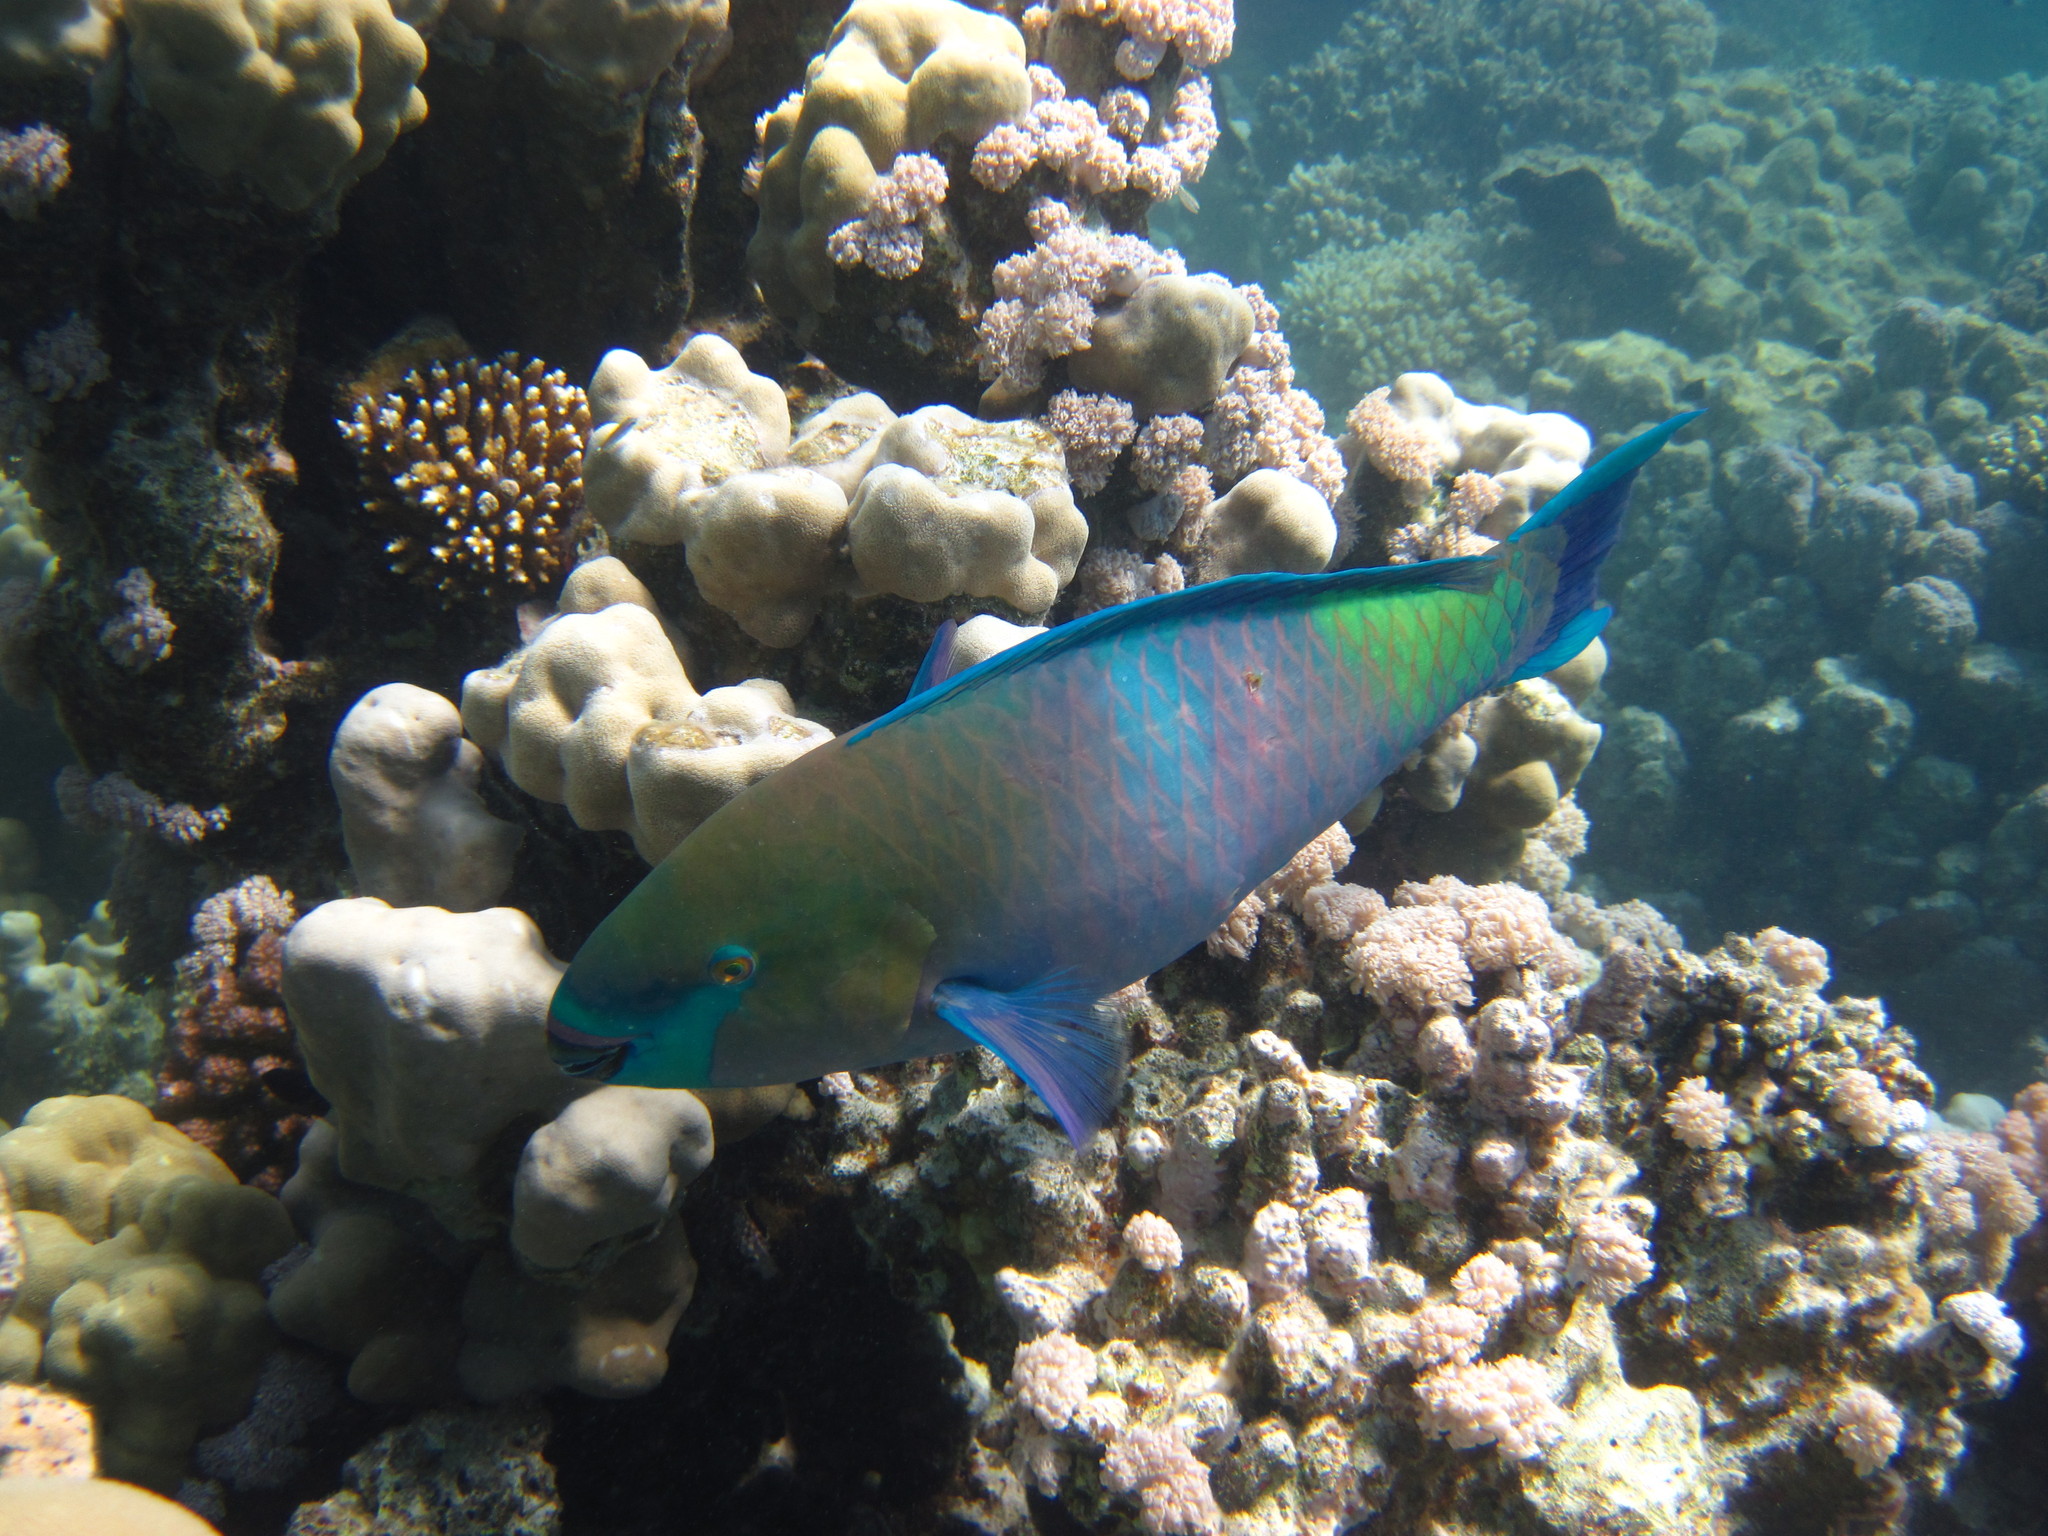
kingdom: Animalia
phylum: Chordata
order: Perciformes
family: Scaridae
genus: Scarus
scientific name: Scarus ferrugineus
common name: Rusty parrotfish
